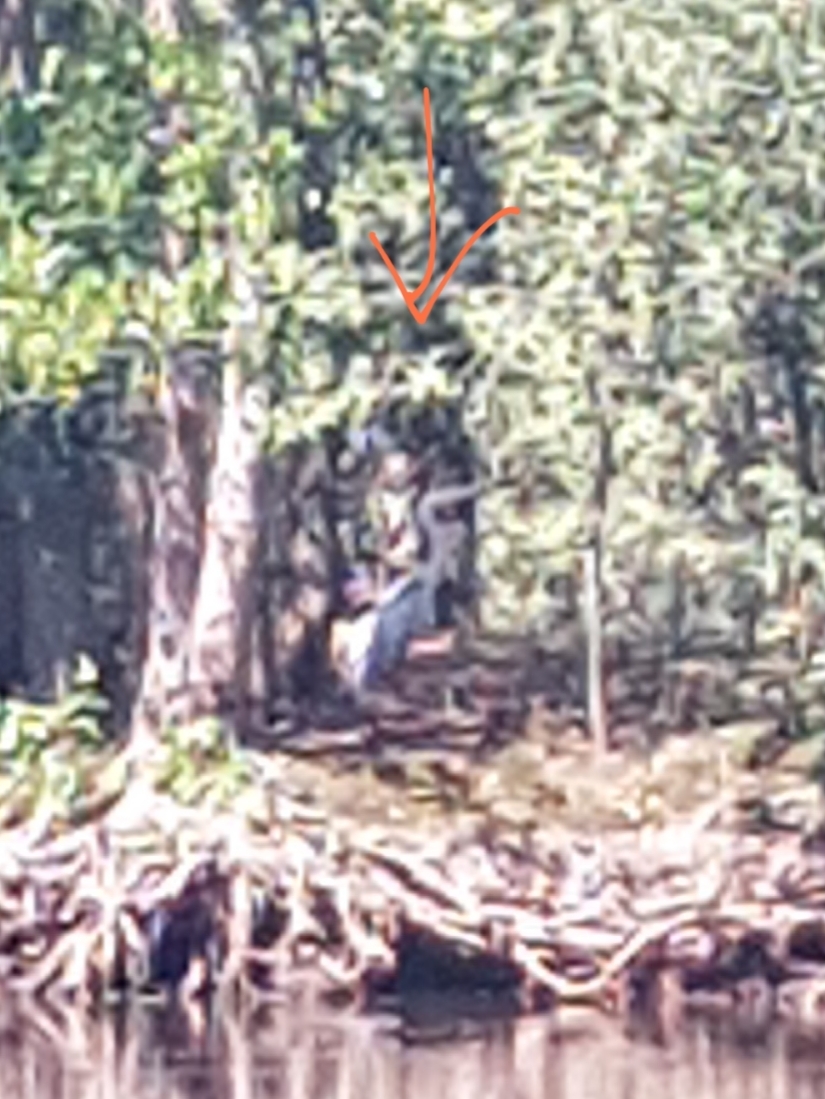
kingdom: Animalia
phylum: Chordata
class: Aves
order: Pelecaniformes
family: Ardeidae
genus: Ardea
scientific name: Ardea cinerea
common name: Grey heron
